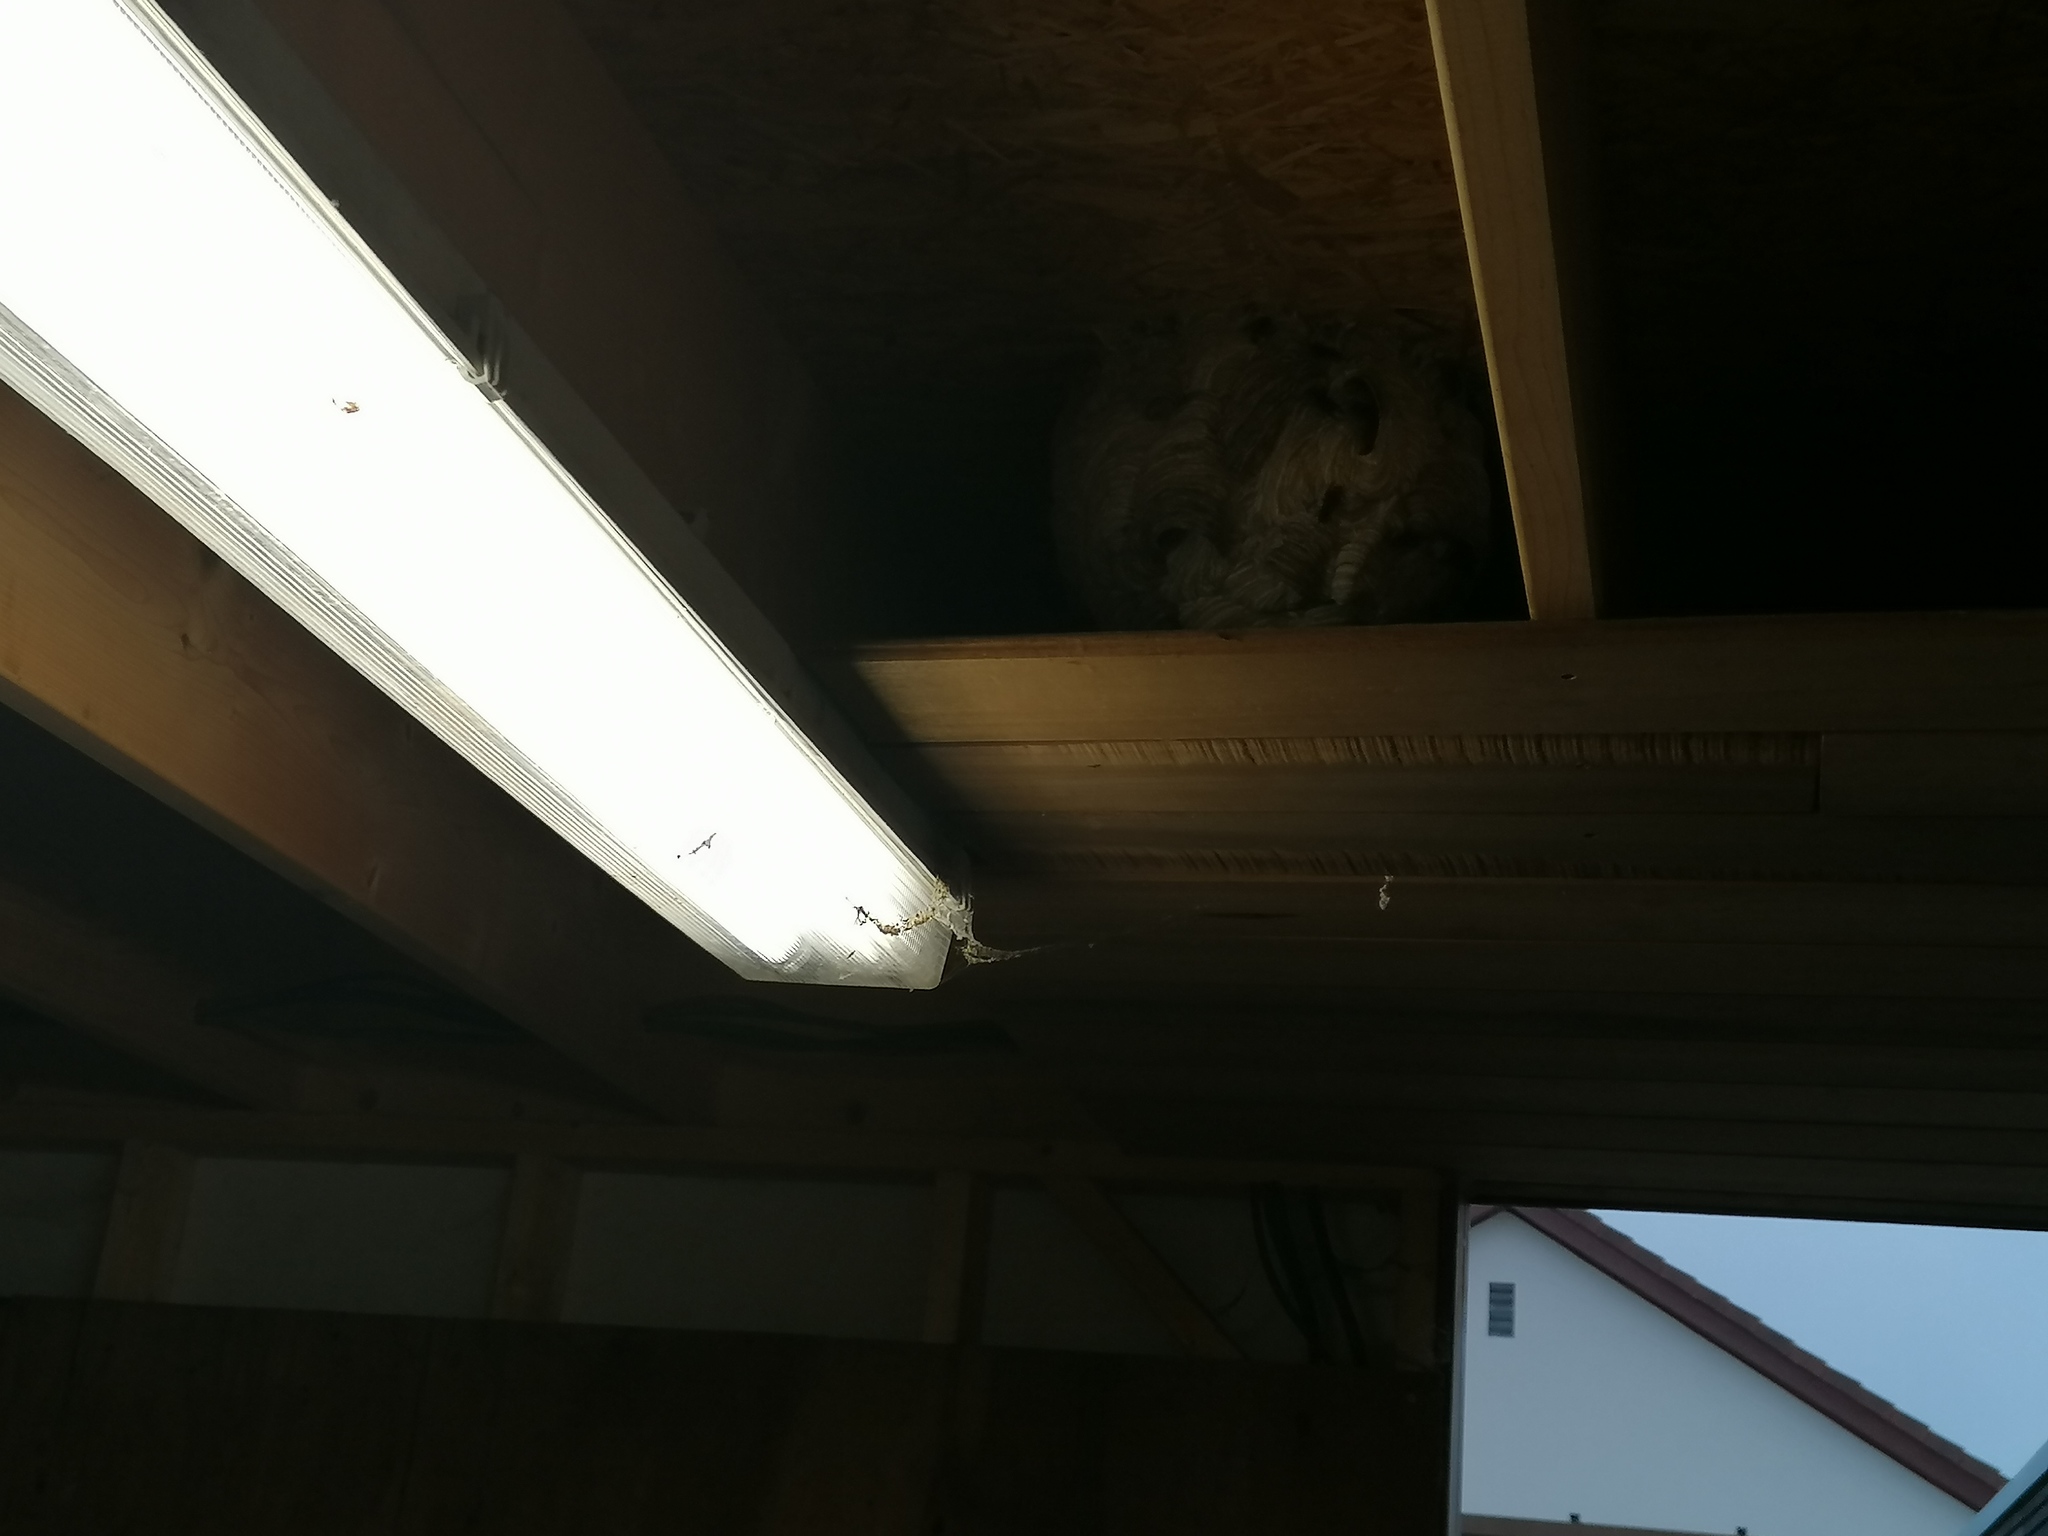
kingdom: Animalia
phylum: Arthropoda
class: Insecta
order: Hymenoptera
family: Vespidae
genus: Vespa
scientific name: Vespa velutina
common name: Asian hornet
